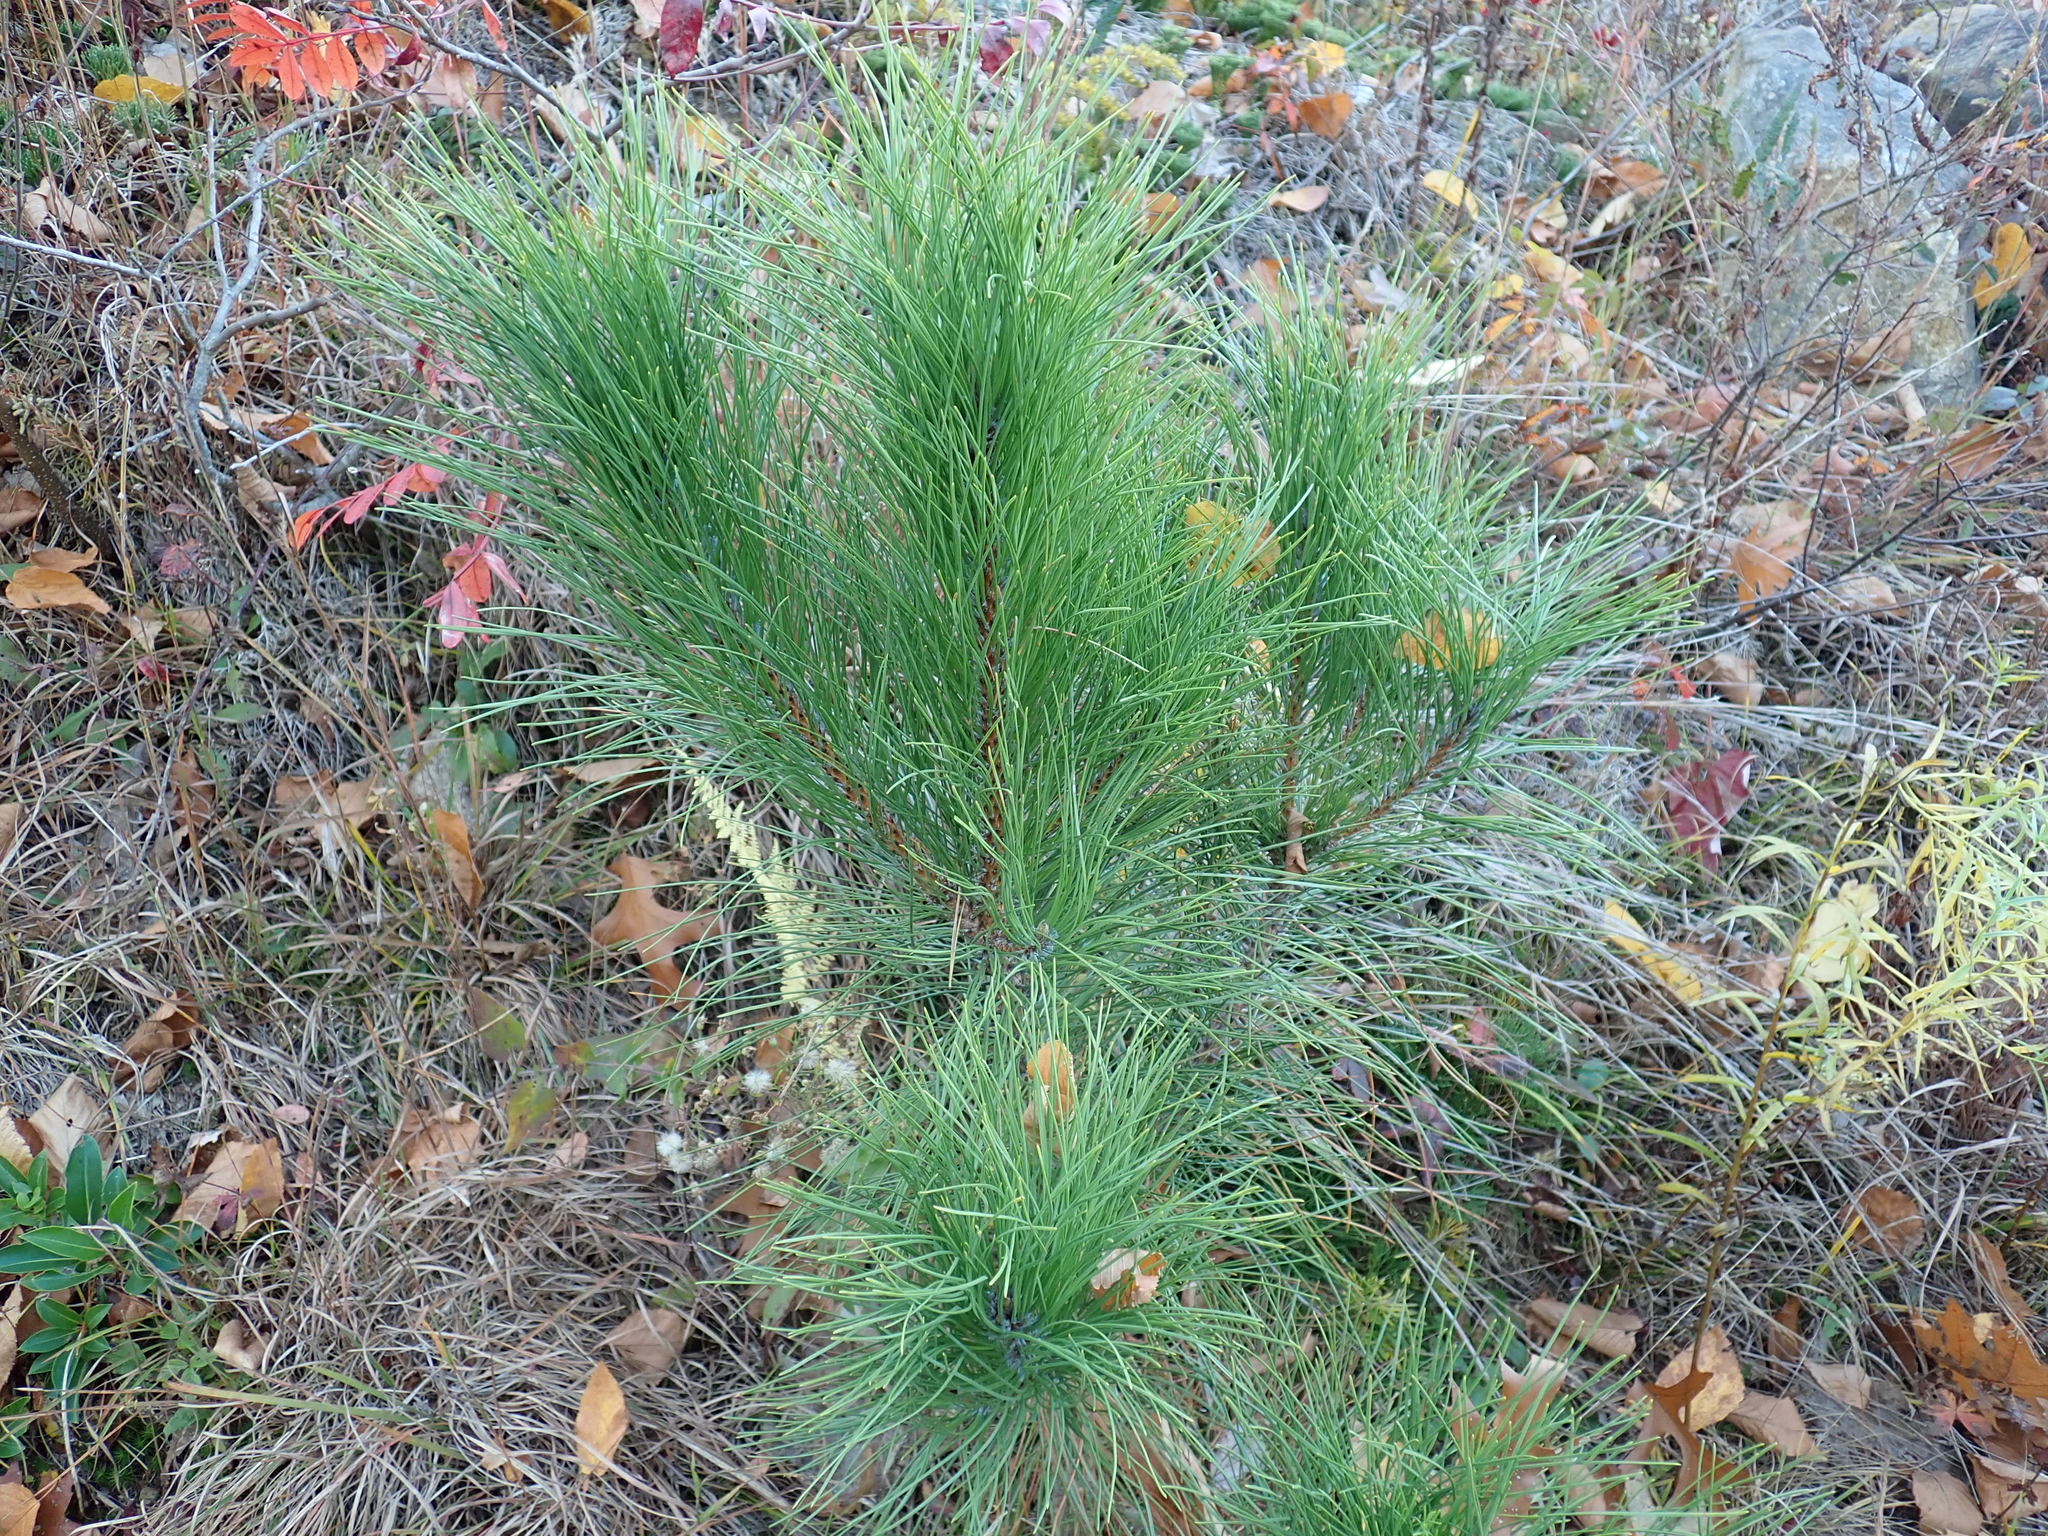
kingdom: Plantae
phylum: Tracheophyta
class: Pinopsida
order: Pinales
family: Pinaceae
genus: Pinus
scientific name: Pinus resinosa
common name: Norway pine
